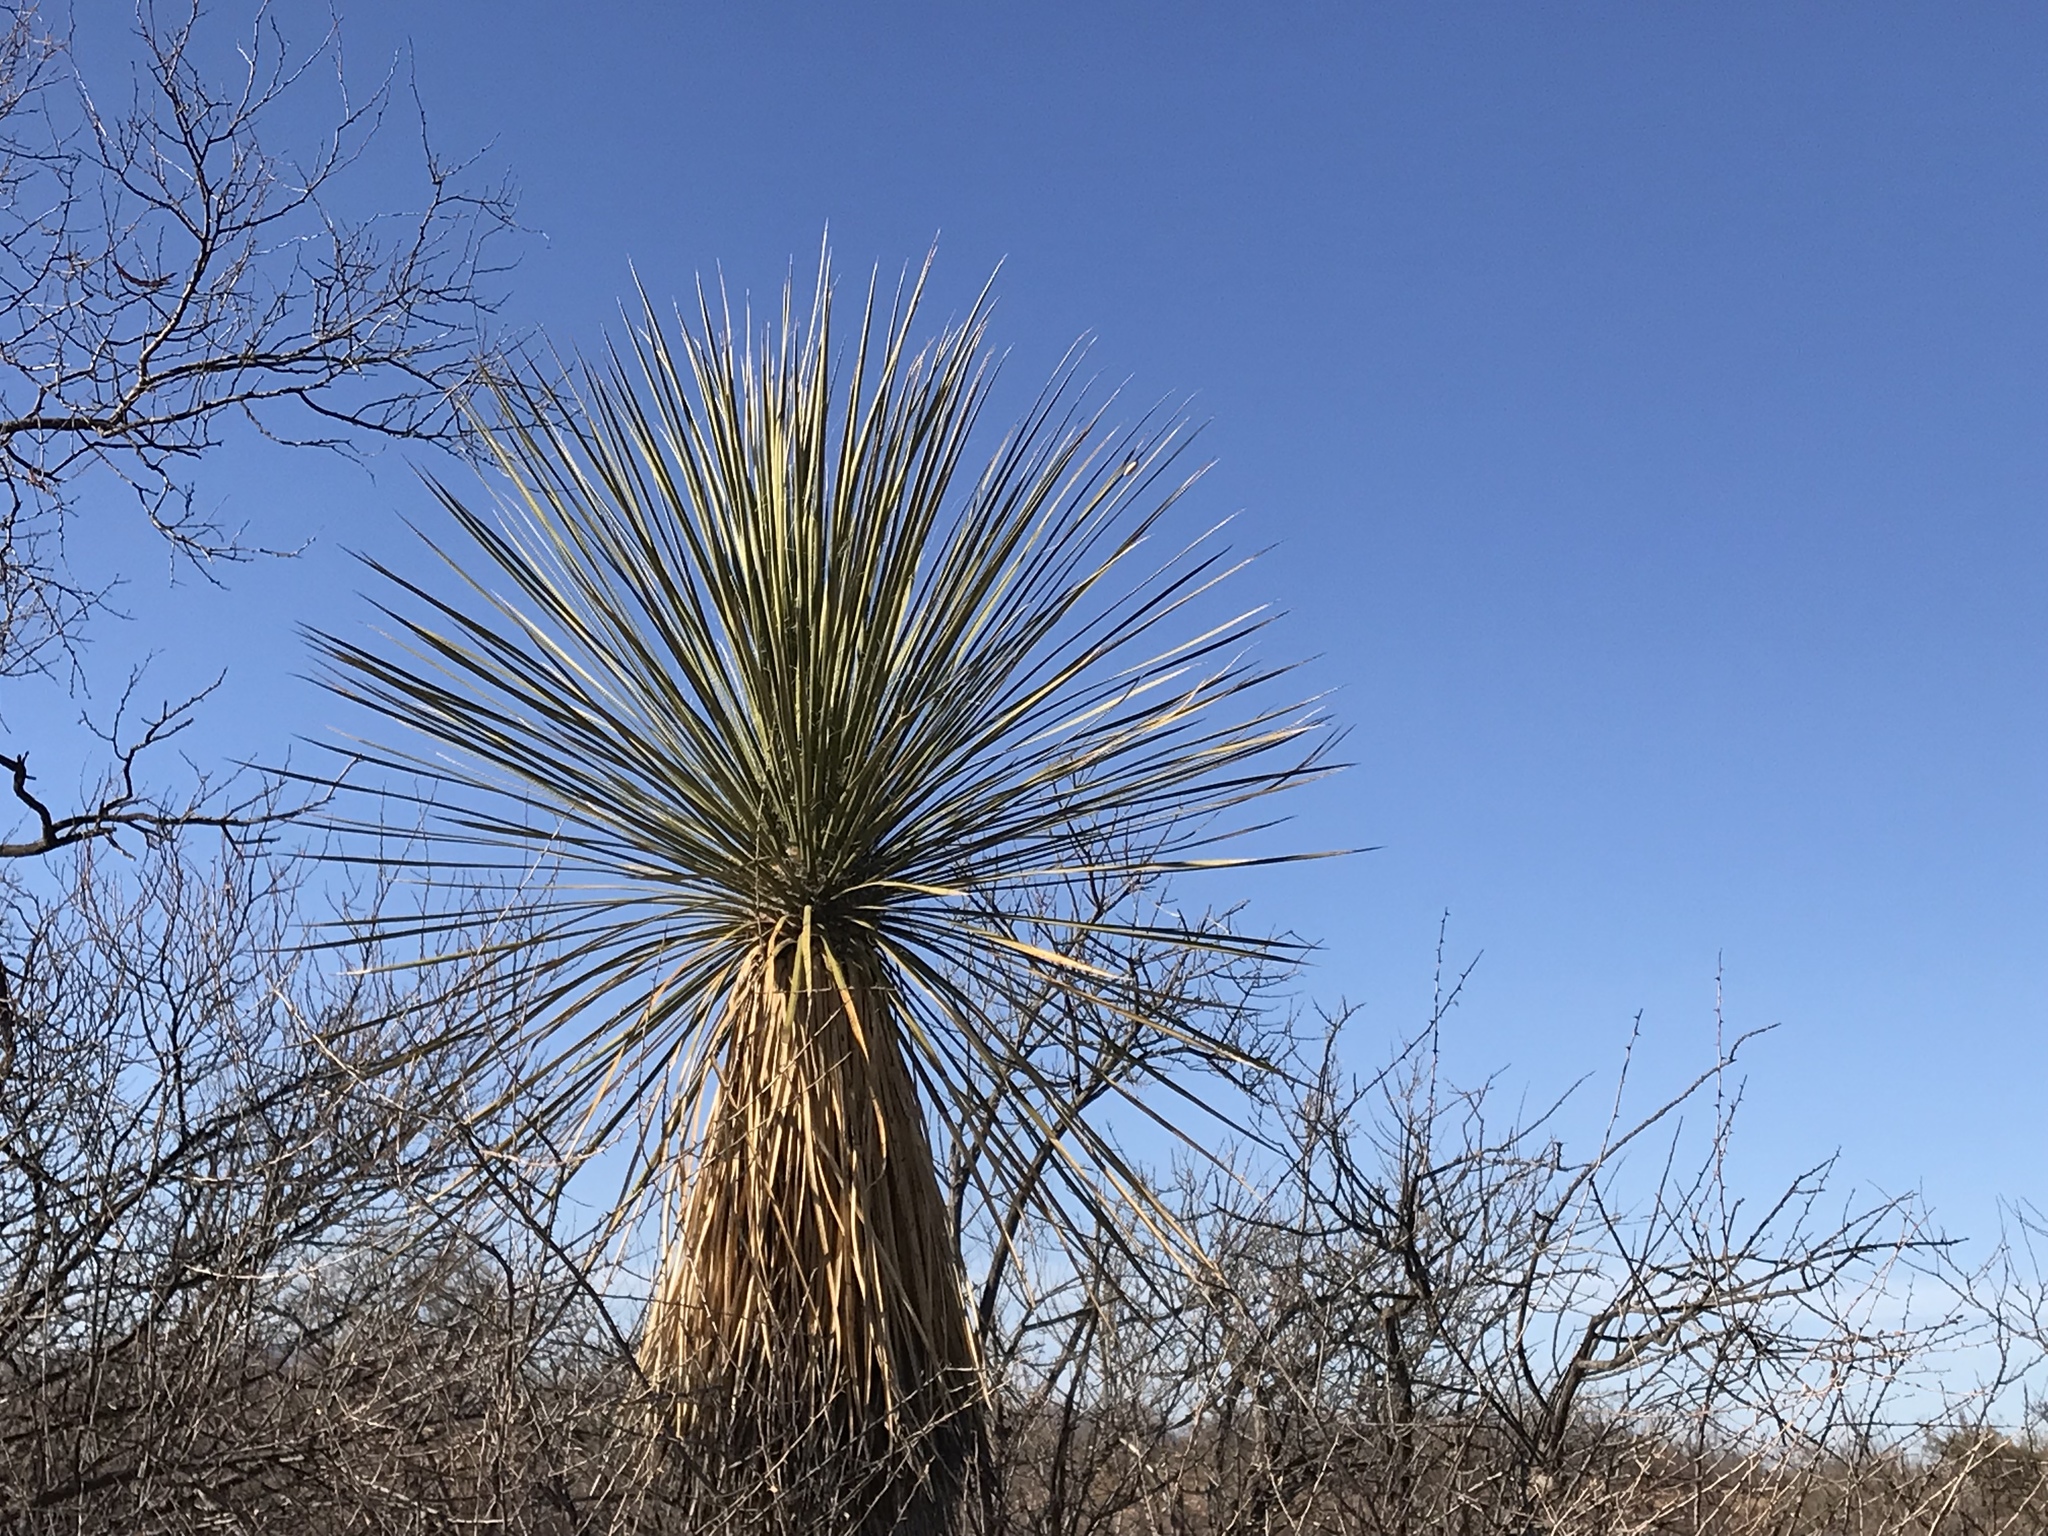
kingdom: Plantae
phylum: Tracheophyta
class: Liliopsida
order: Asparagales
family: Asparagaceae
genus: Yucca
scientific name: Yucca elata
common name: Palmella
